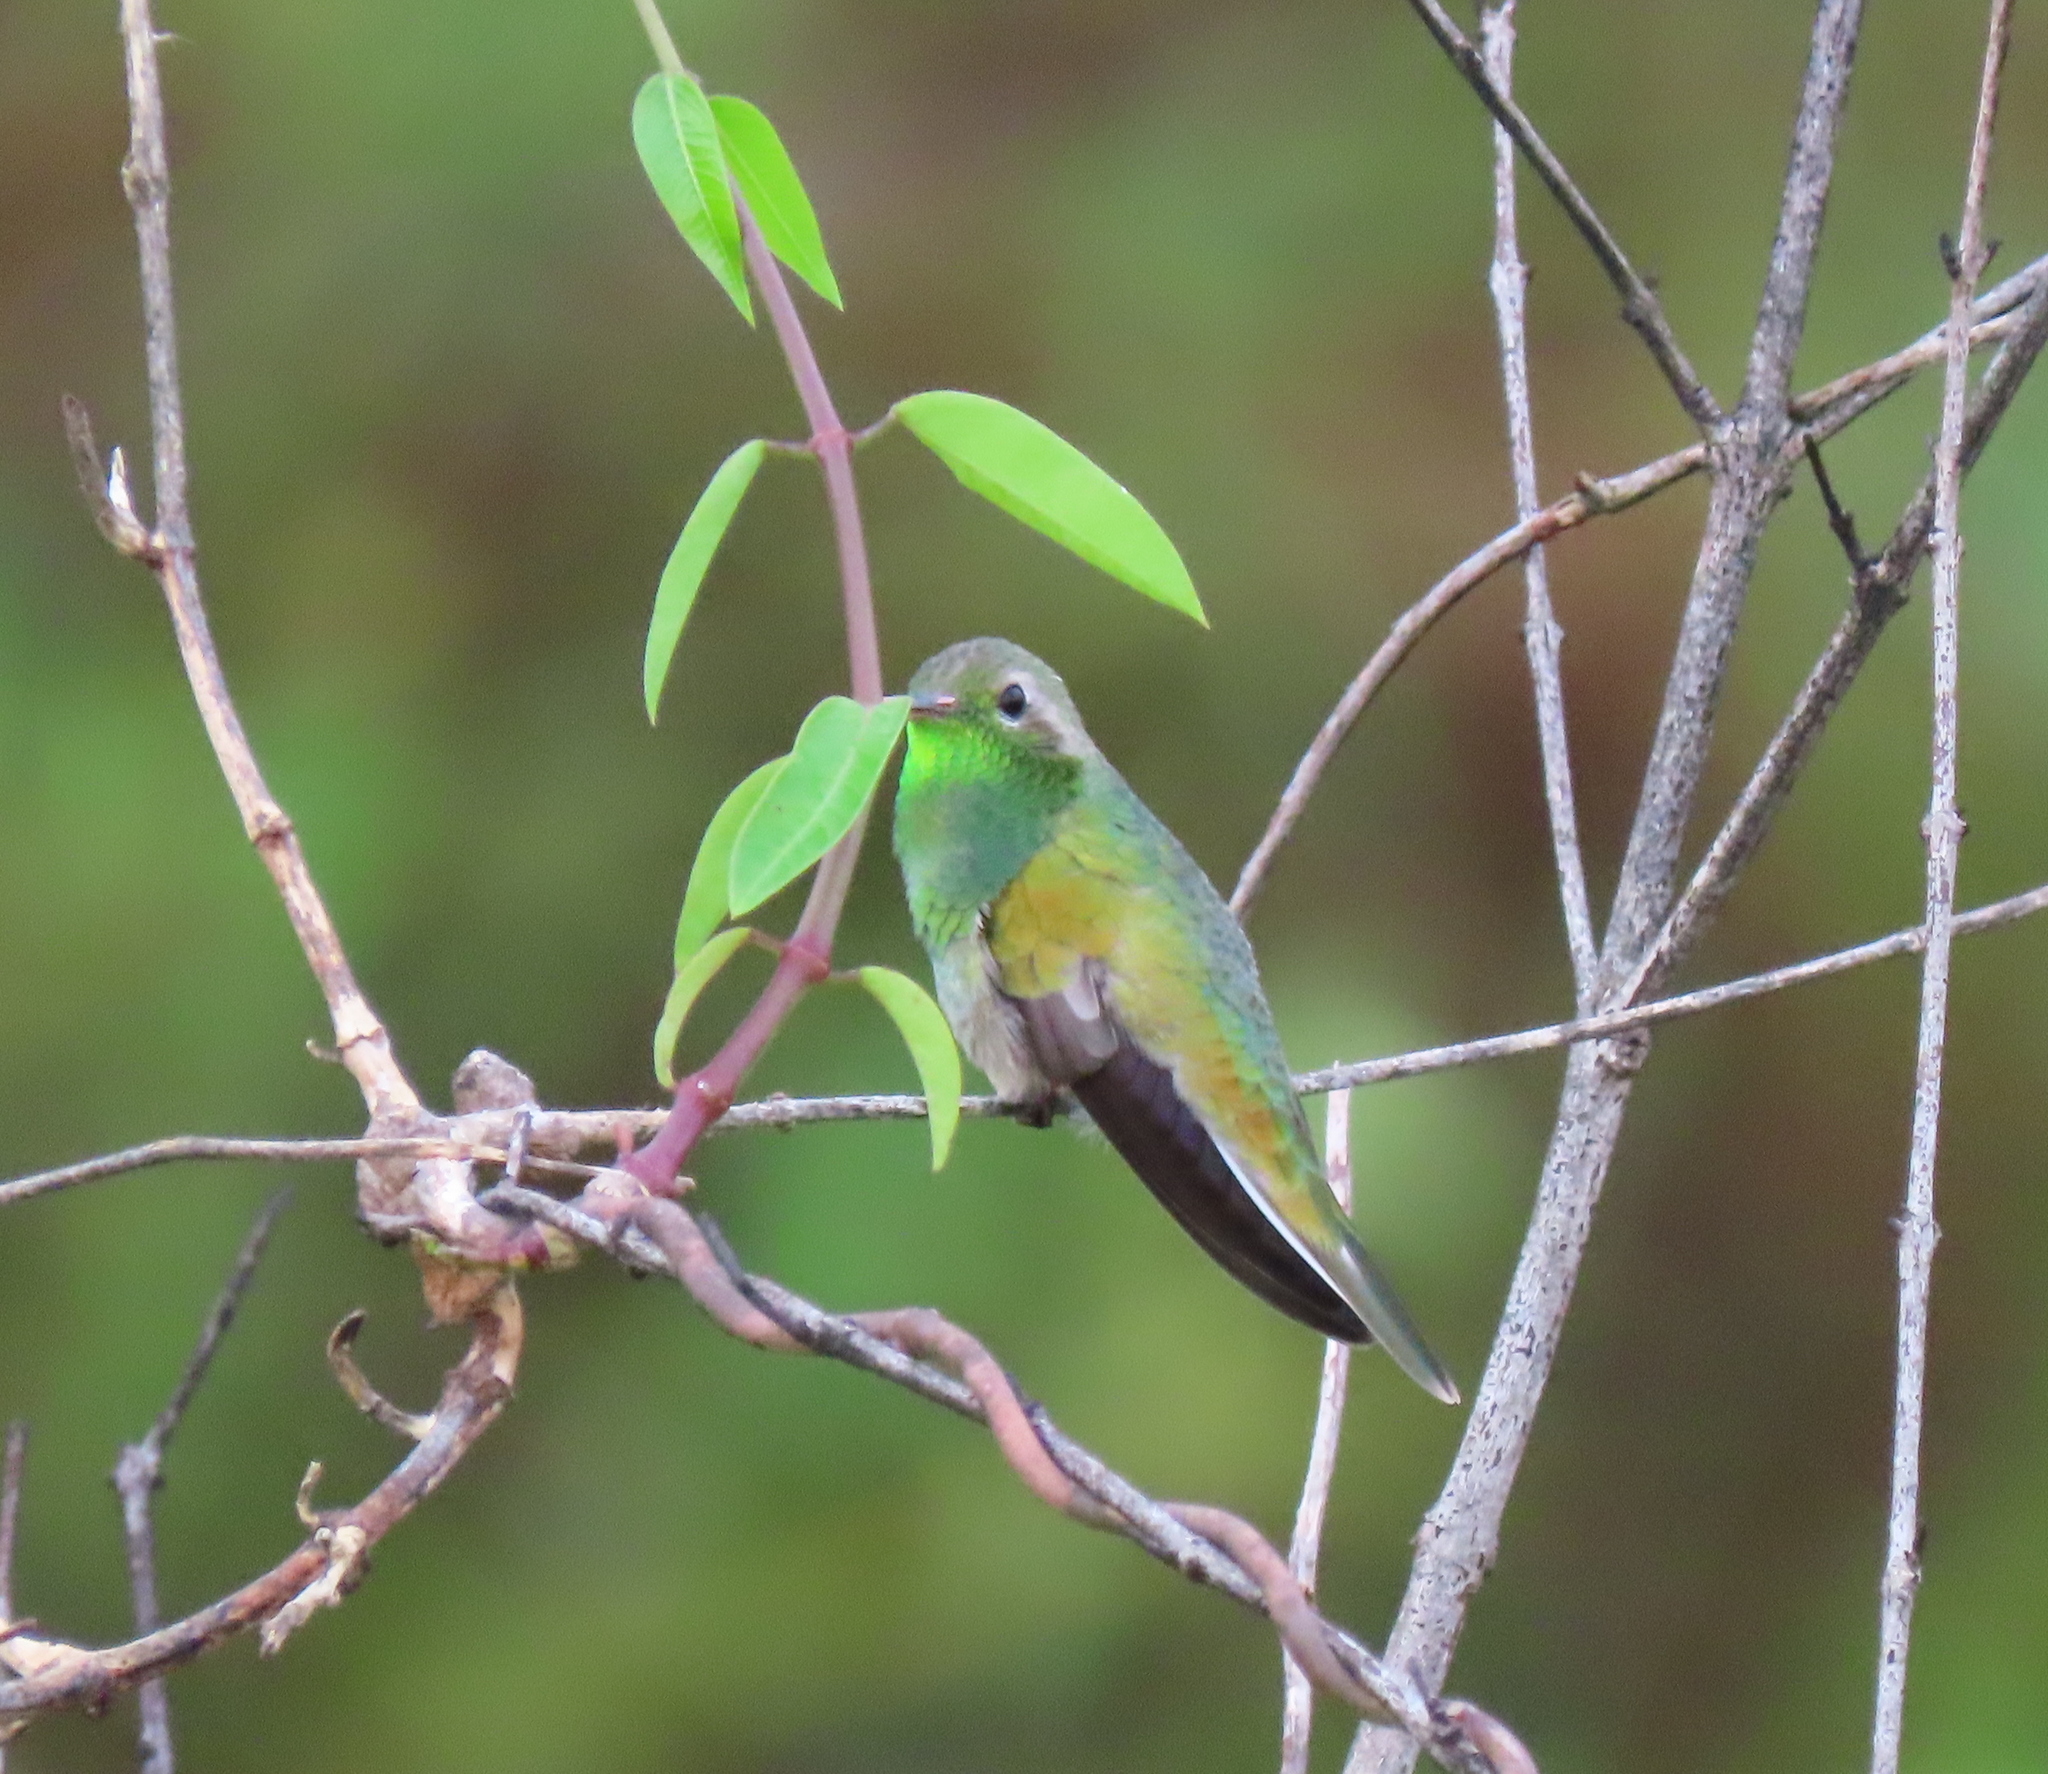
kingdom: Animalia
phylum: Chordata
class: Aves
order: Apodiformes
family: Trochilidae
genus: Polytmus
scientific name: Polytmus guainumbi
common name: White-tailed goldenthroat
